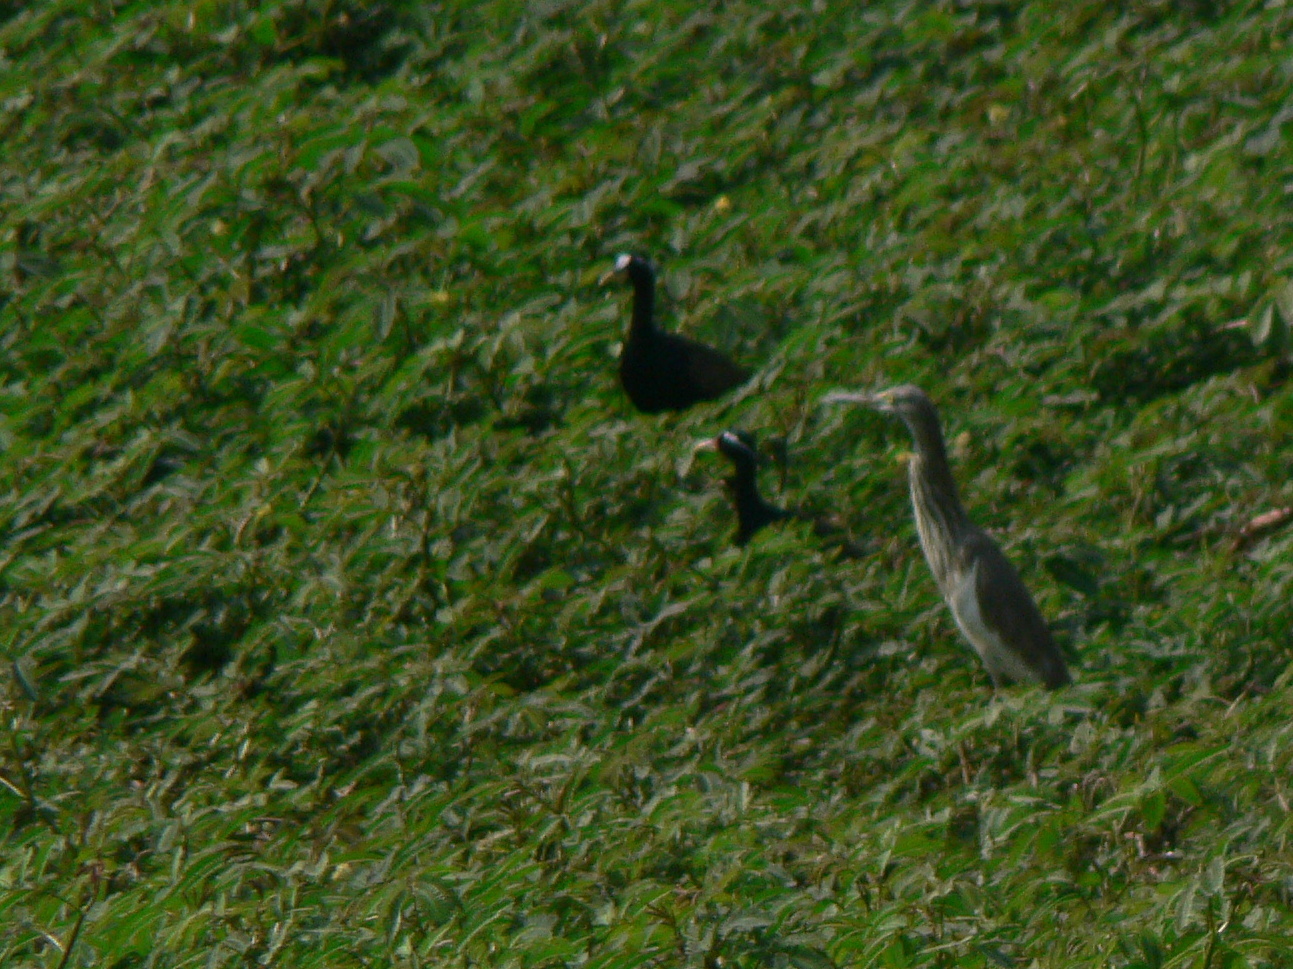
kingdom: Animalia
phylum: Chordata
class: Aves
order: Charadriiformes
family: Jacanidae
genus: Metopidius
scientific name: Metopidius indicus
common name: Bronze-winged jacana
